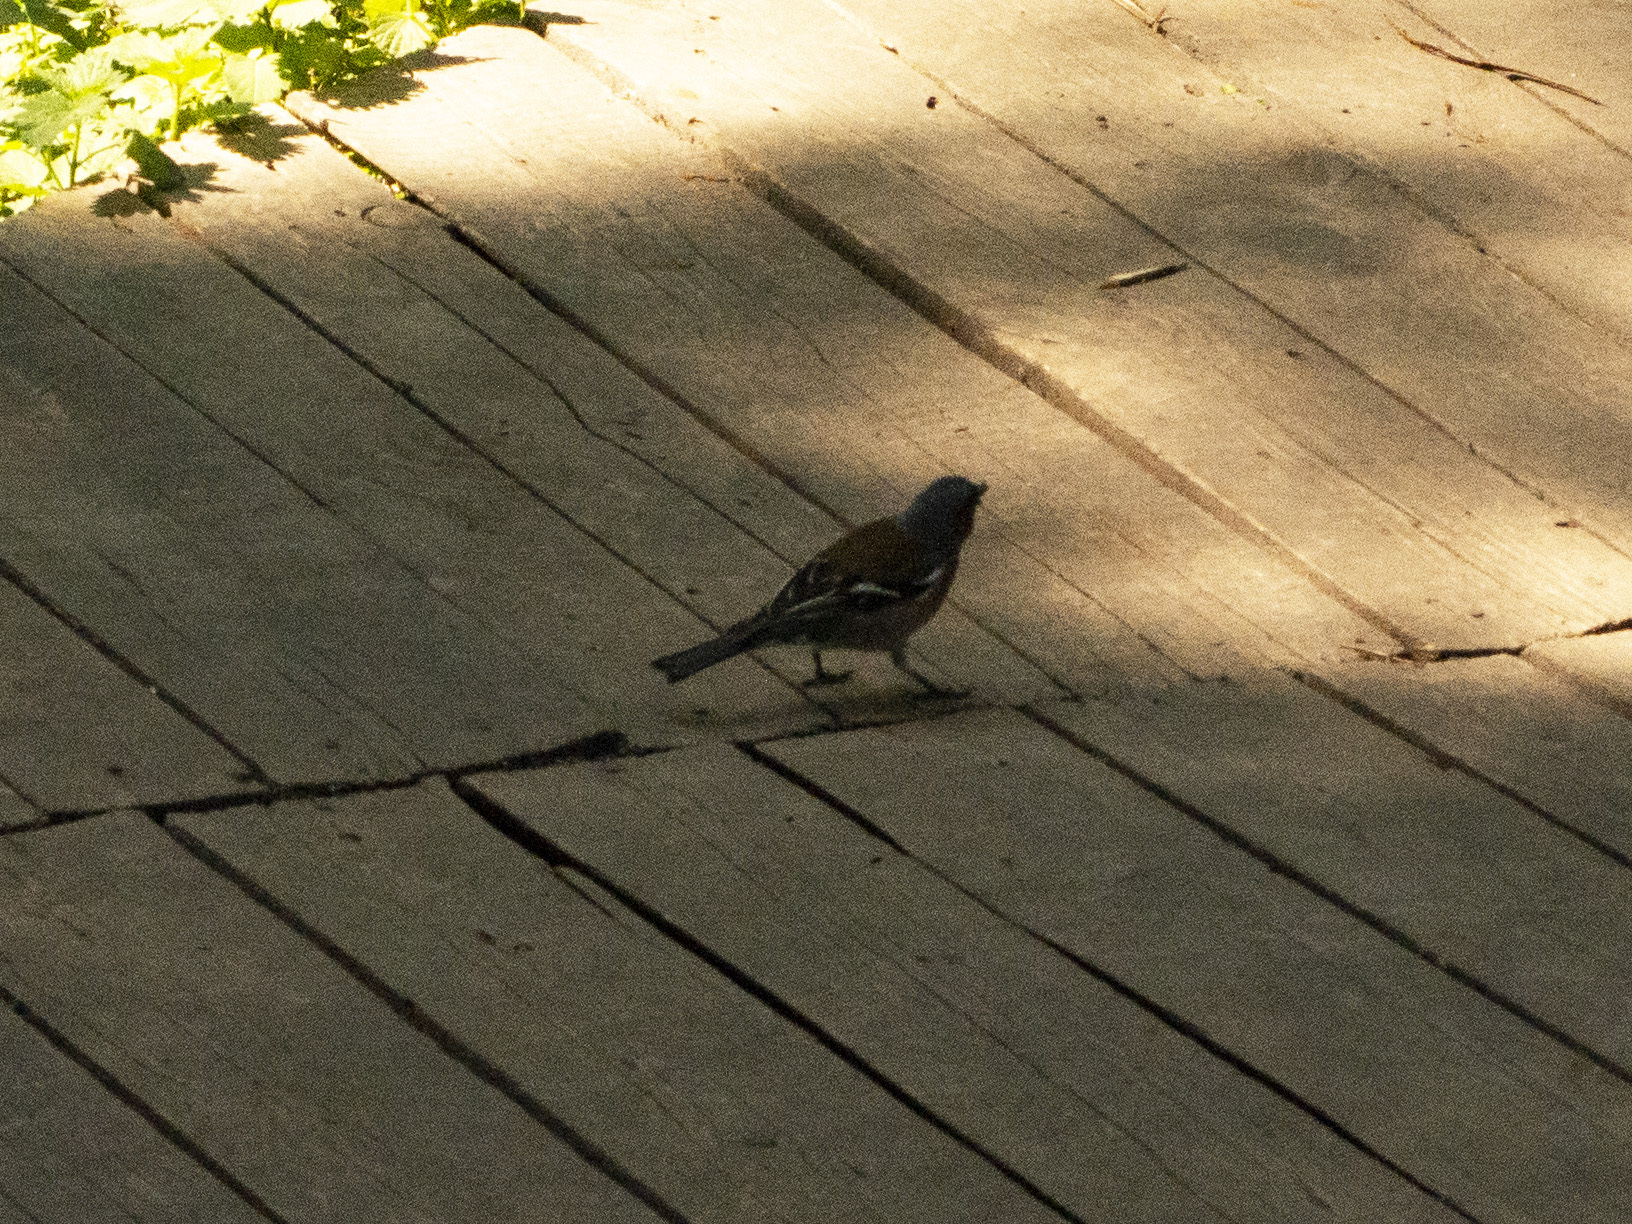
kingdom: Animalia
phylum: Chordata
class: Aves
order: Passeriformes
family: Fringillidae
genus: Fringilla
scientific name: Fringilla coelebs
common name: Common chaffinch
